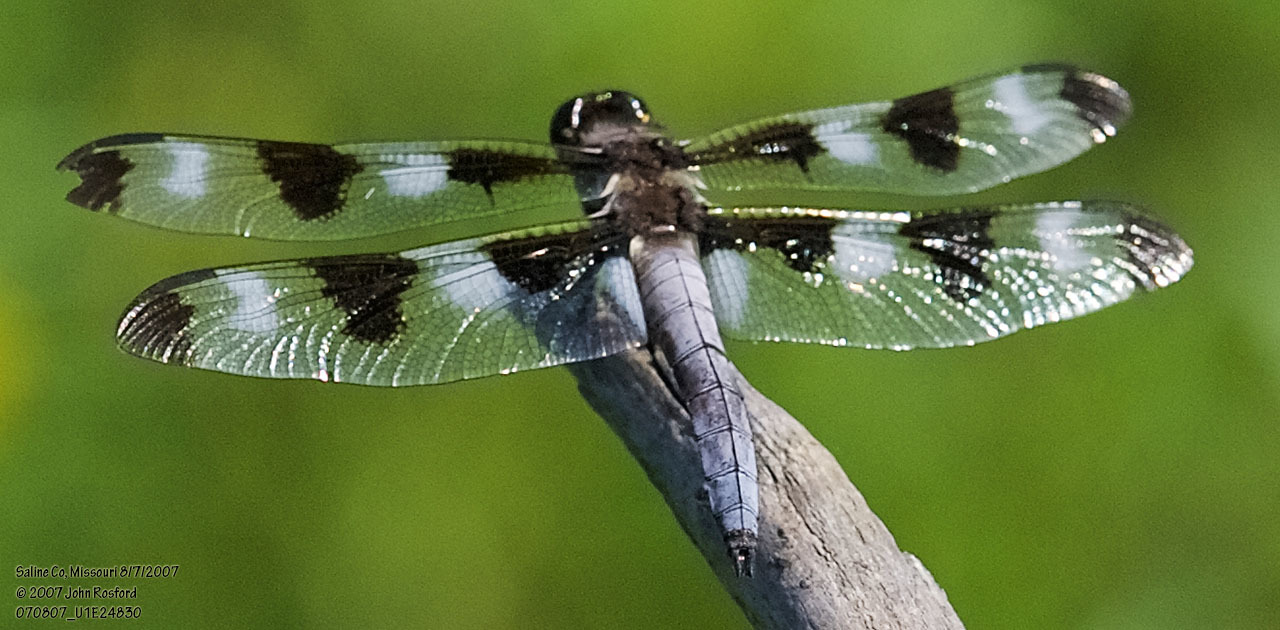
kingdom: Animalia
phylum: Arthropoda
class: Insecta
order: Odonata
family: Libellulidae
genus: Libellula
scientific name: Libellula pulchella
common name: Twelve-spotted skimmer
